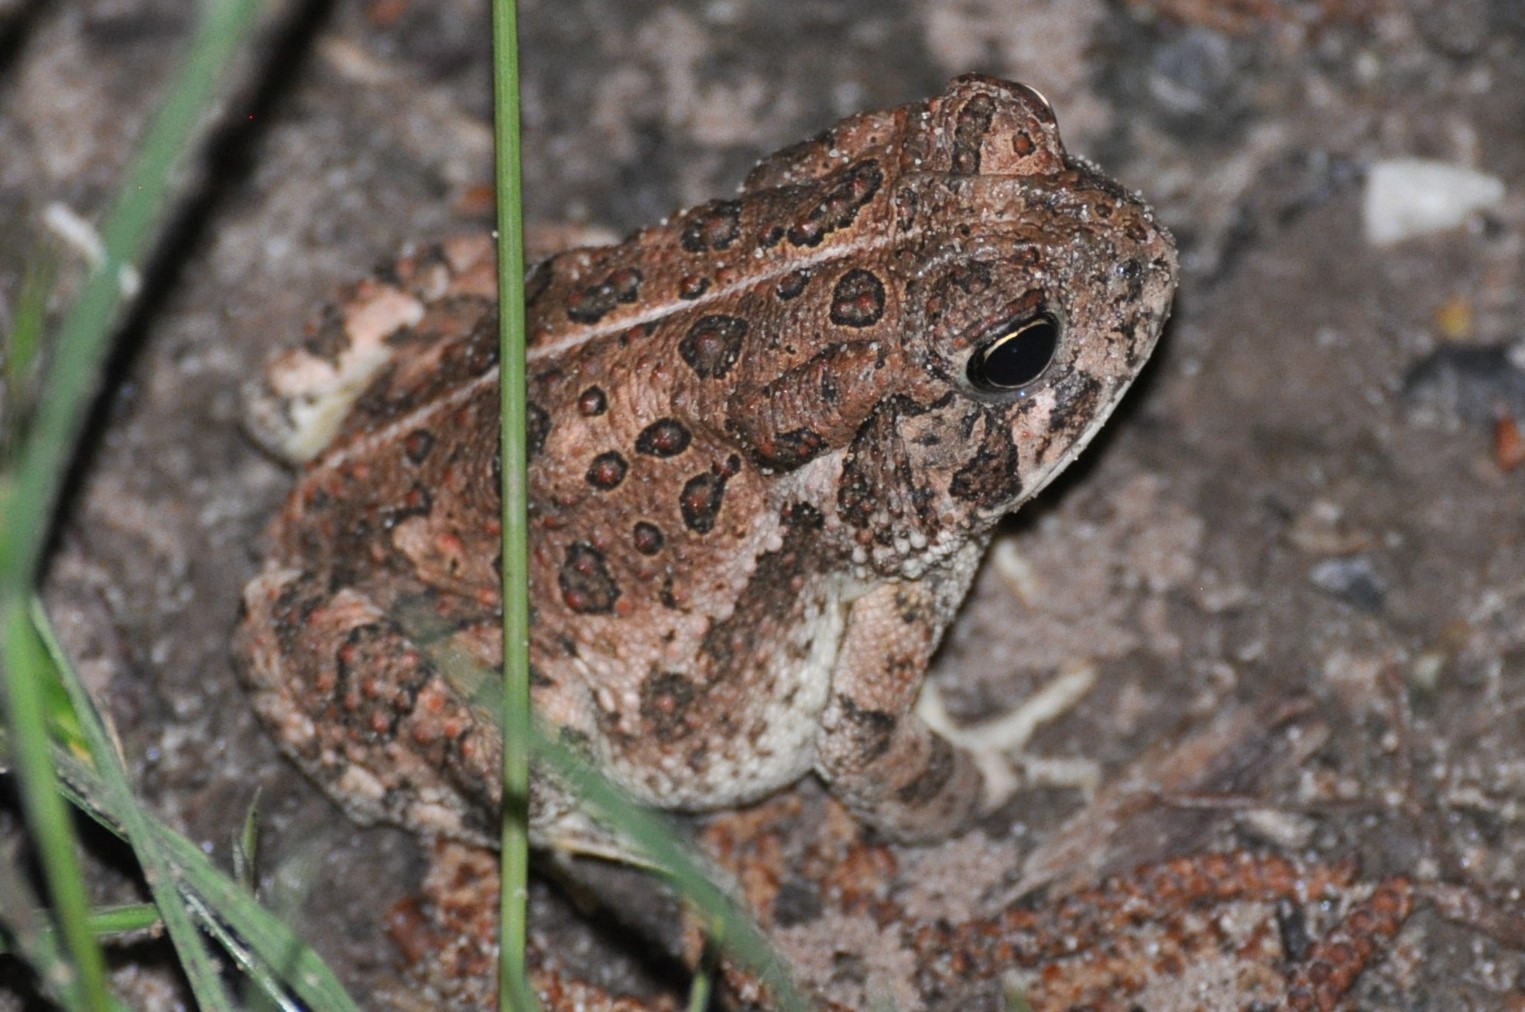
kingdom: Animalia
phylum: Chordata
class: Amphibia
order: Anura
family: Bufonidae
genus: Anaxyrus
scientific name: Anaxyrus americanus
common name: American toad
